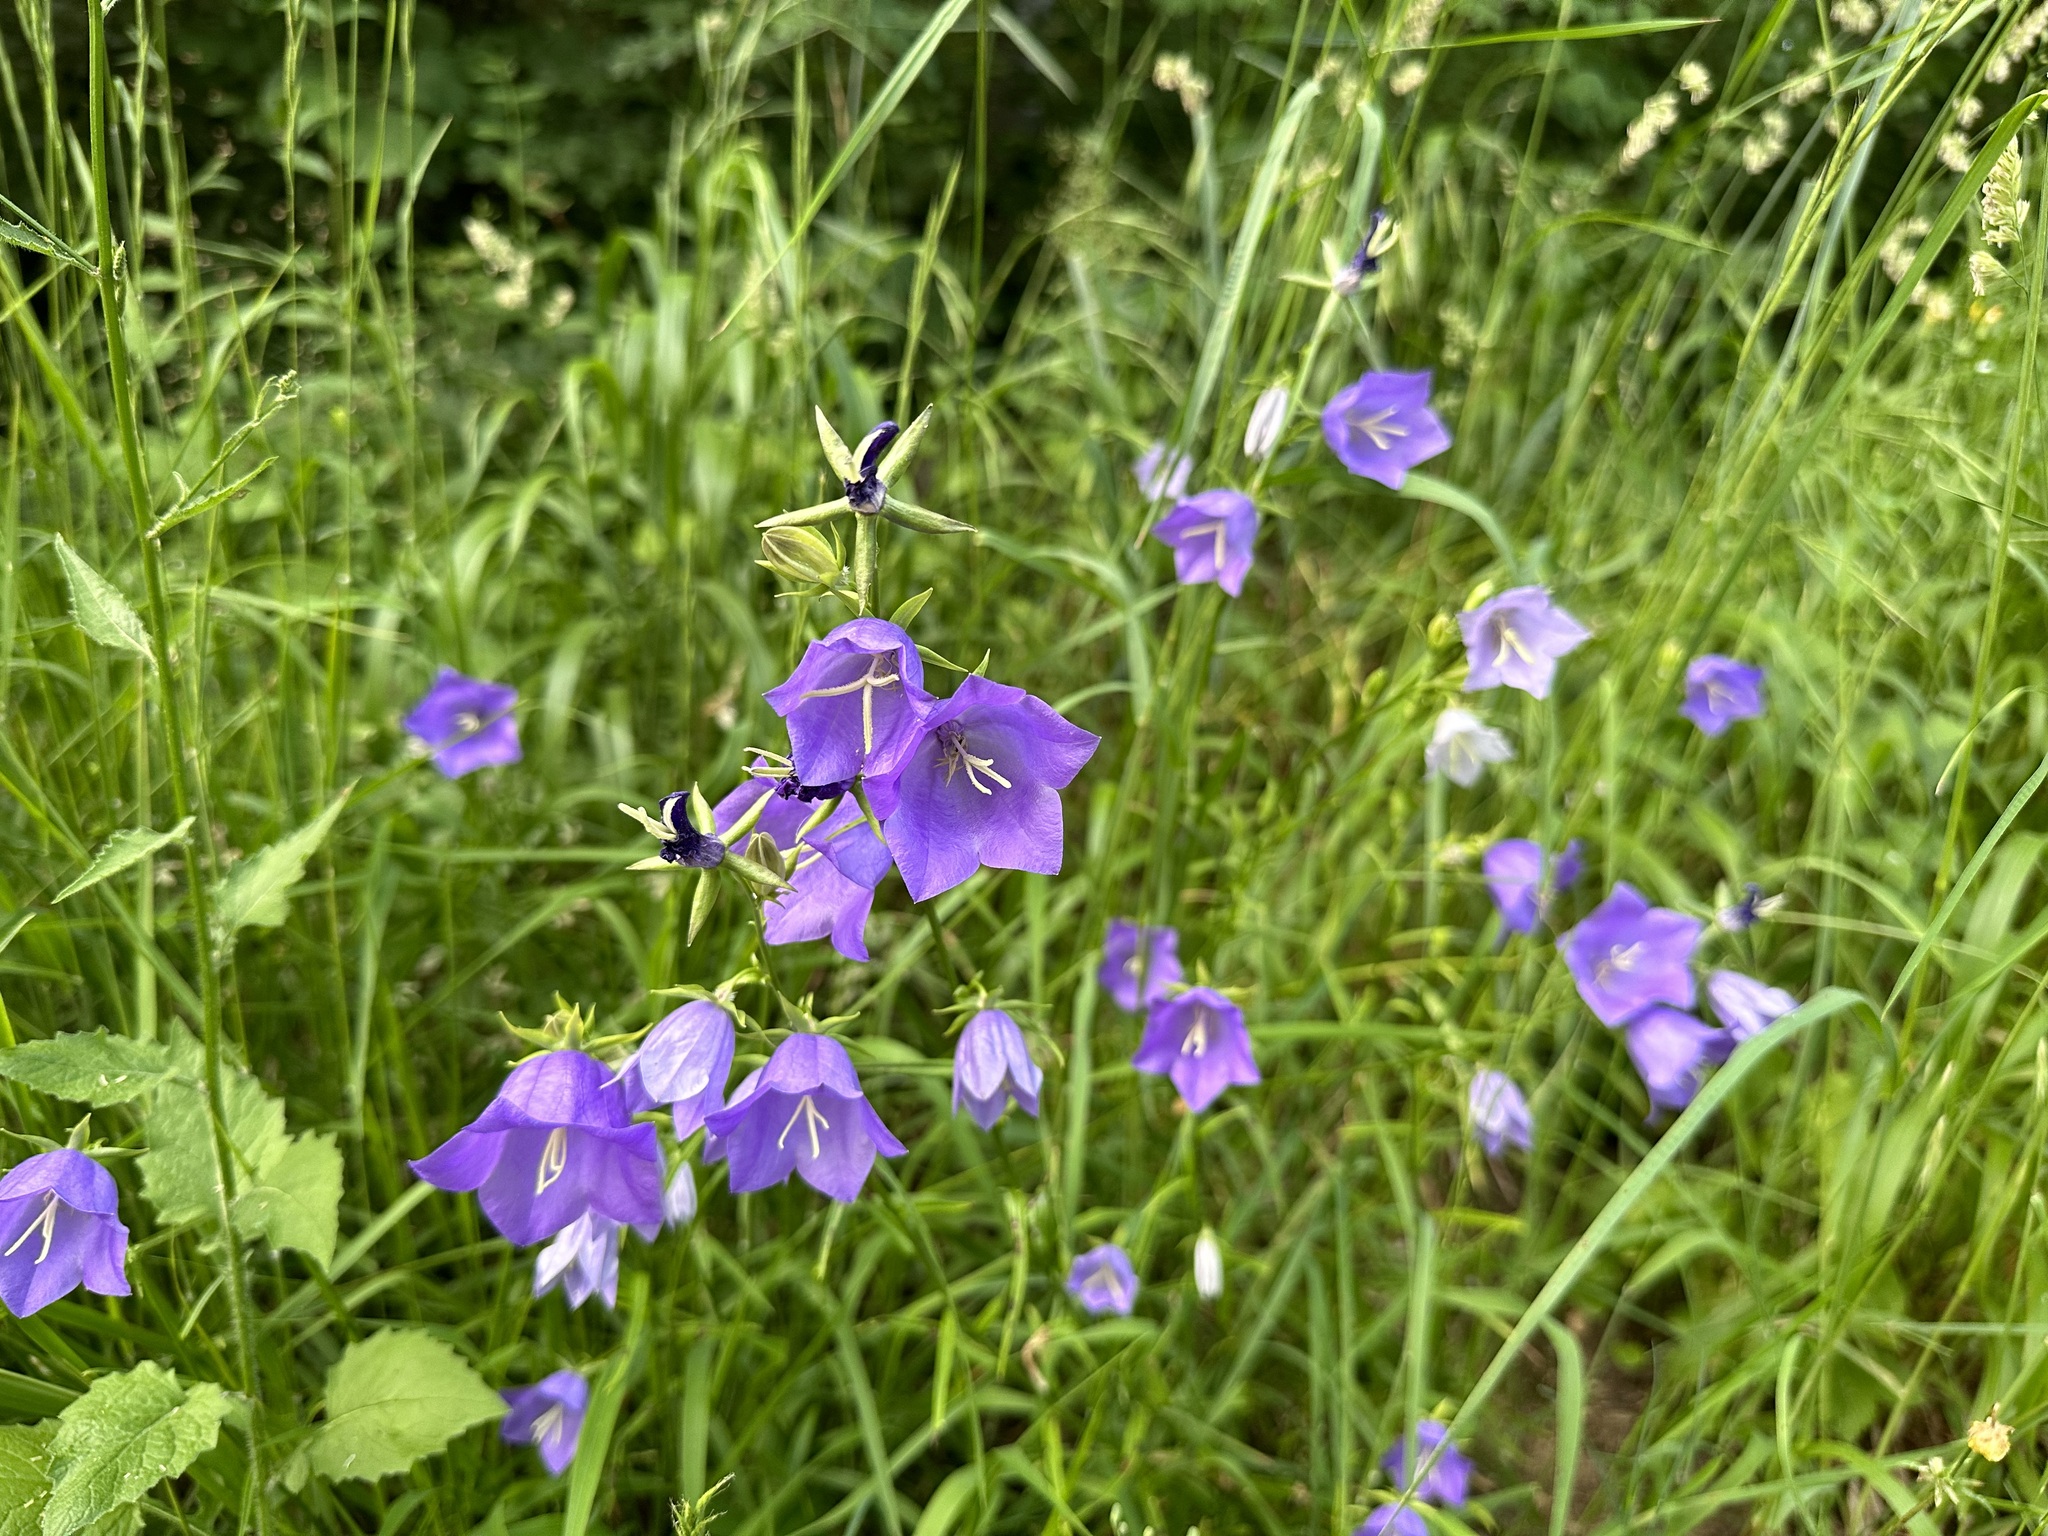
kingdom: Plantae
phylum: Tracheophyta
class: Magnoliopsida
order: Asterales
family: Campanulaceae
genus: Campanula
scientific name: Campanula persicifolia
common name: Peach-leaved bellflower
